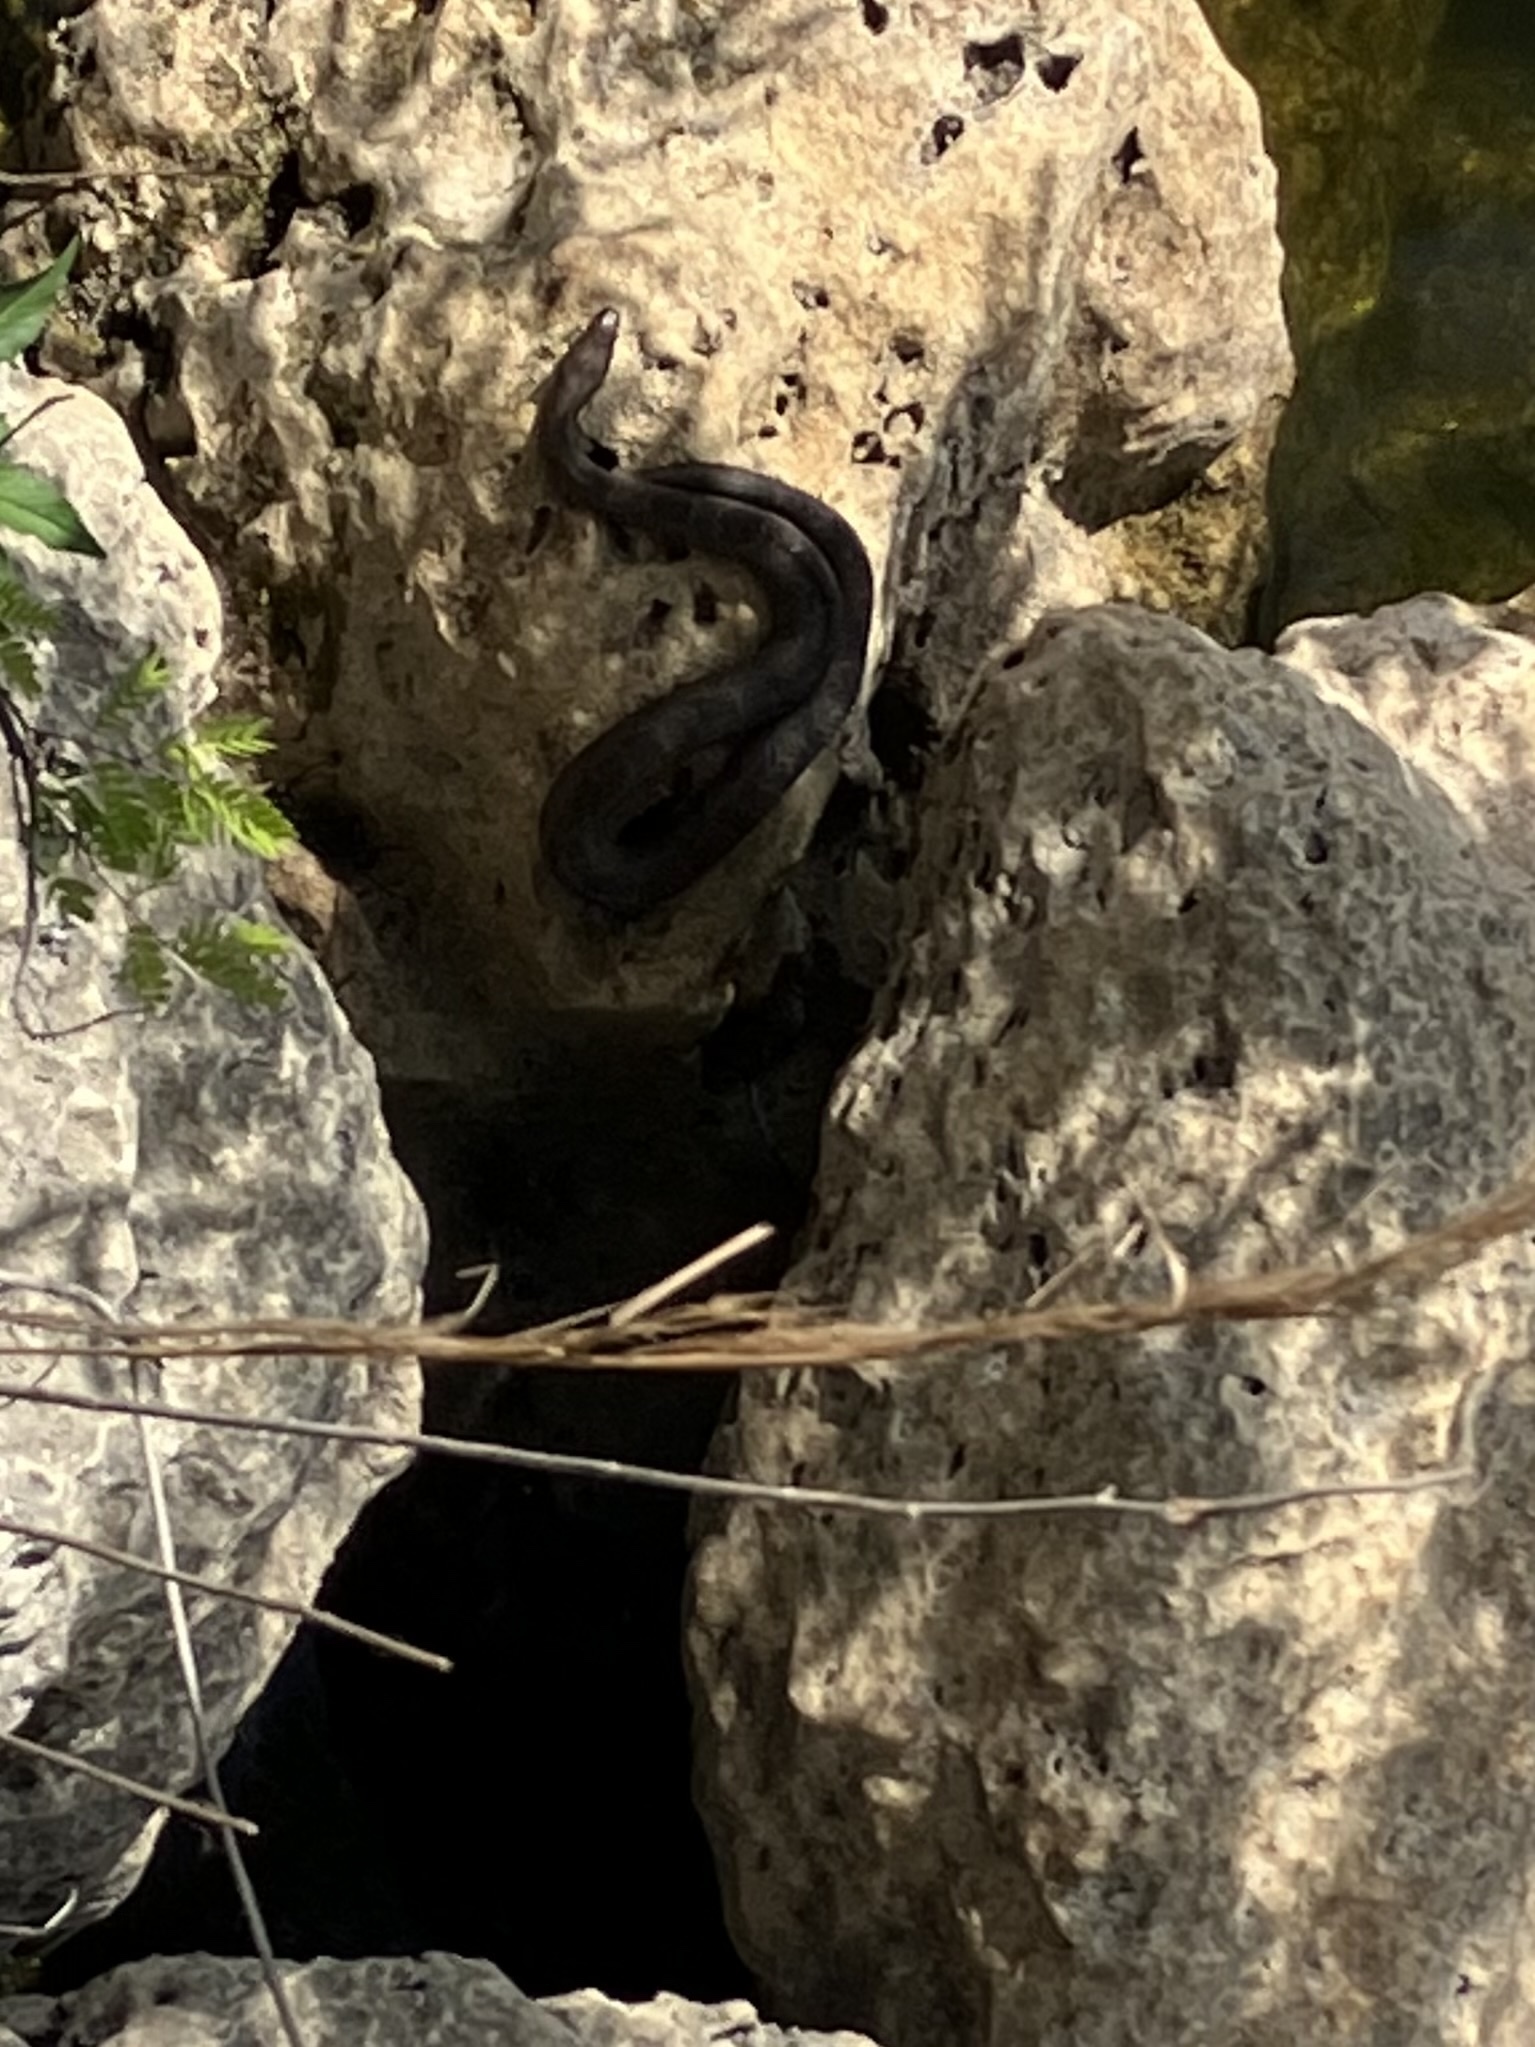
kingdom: Animalia
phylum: Chordata
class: Squamata
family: Colubridae
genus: Nerodia
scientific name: Nerodia taxispilota
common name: Brown water snake
